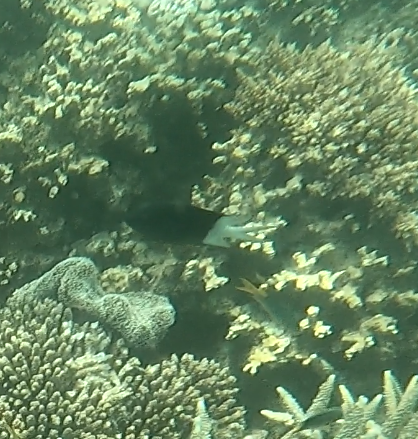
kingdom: Animalia
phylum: Chordata
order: Perciformes
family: Pomacentridae
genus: Acanthochromis
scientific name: Acanthochromis polyacanthus
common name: Spiny chromis
